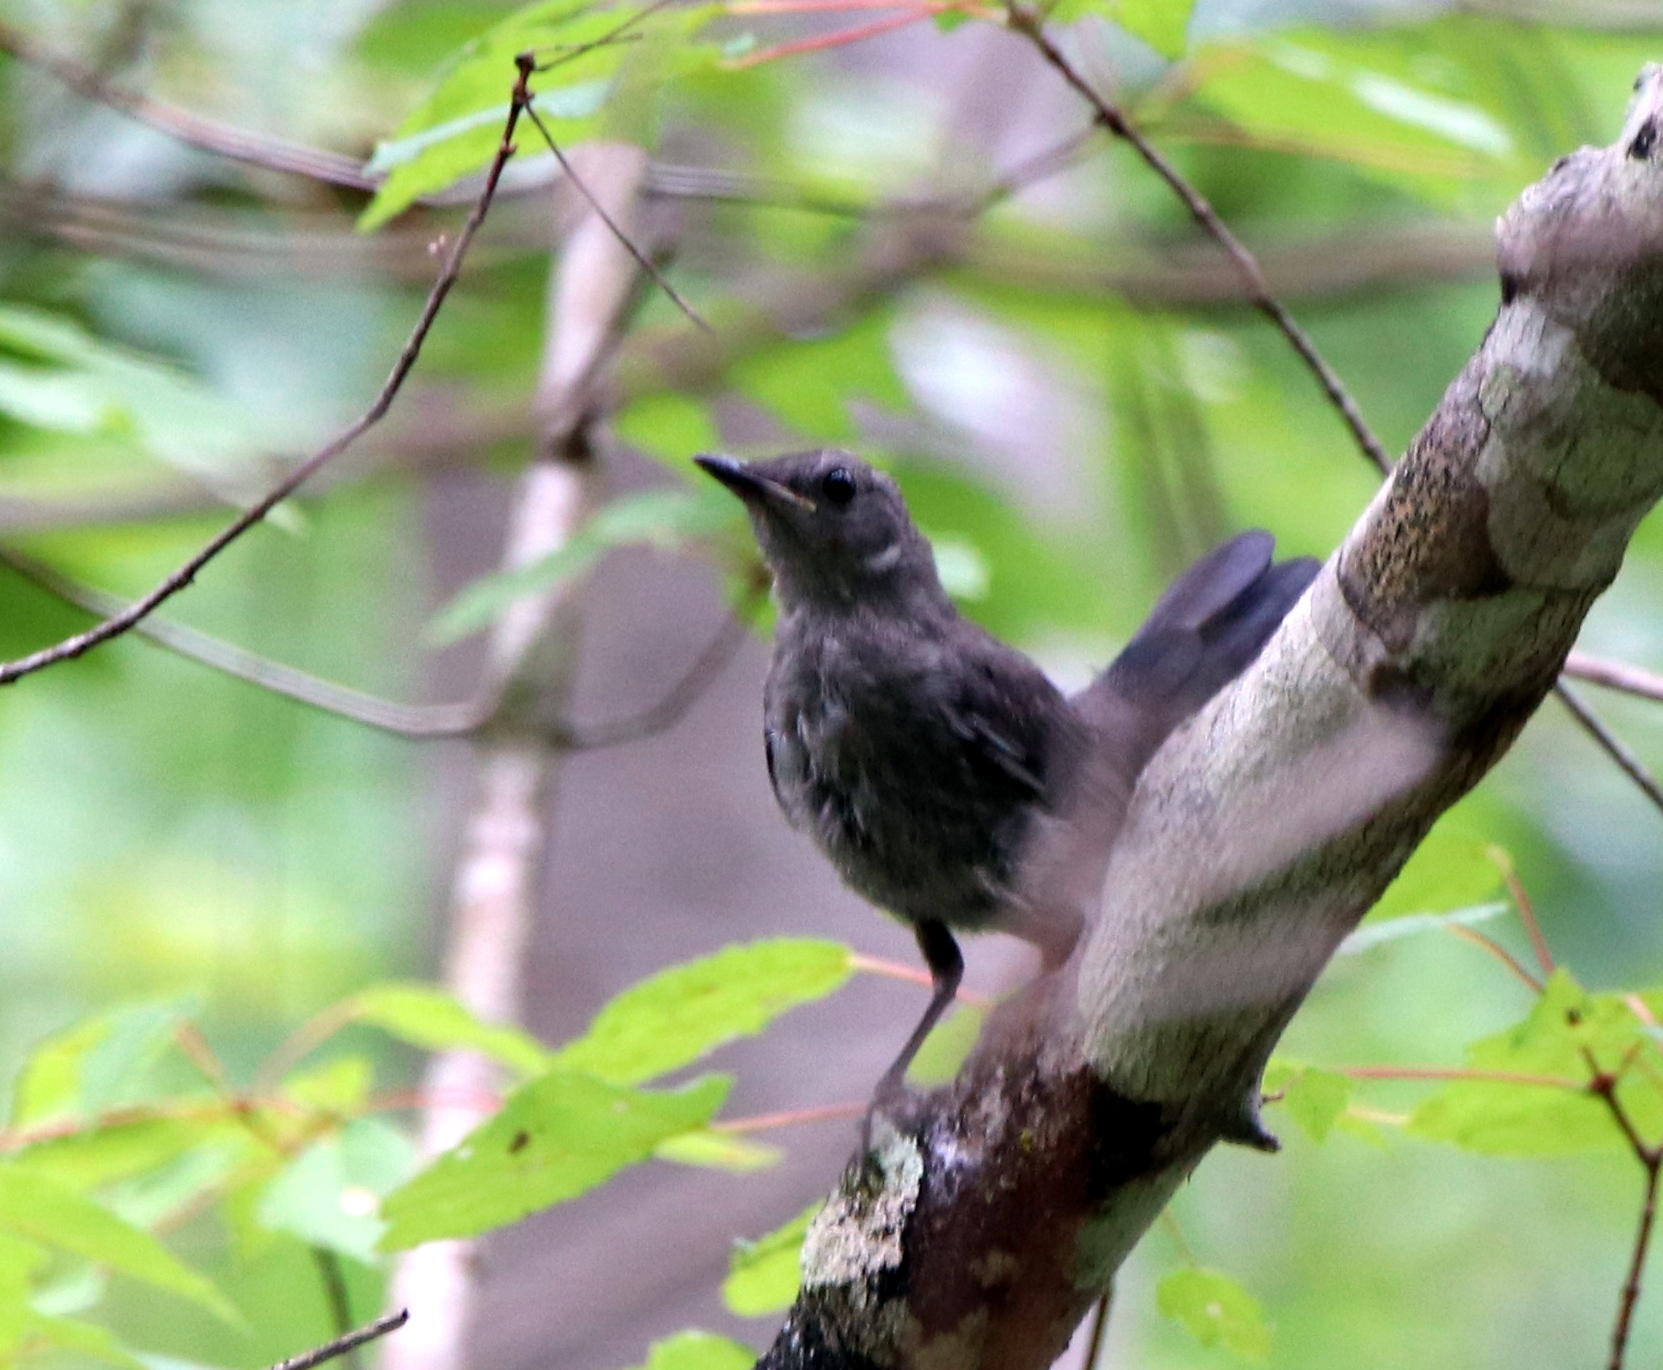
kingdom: Animalia
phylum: Chordata
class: Aves
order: Passeriformes
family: Mimidae
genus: Dumetella
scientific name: Dumetella carolinensis
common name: Gray catbird
